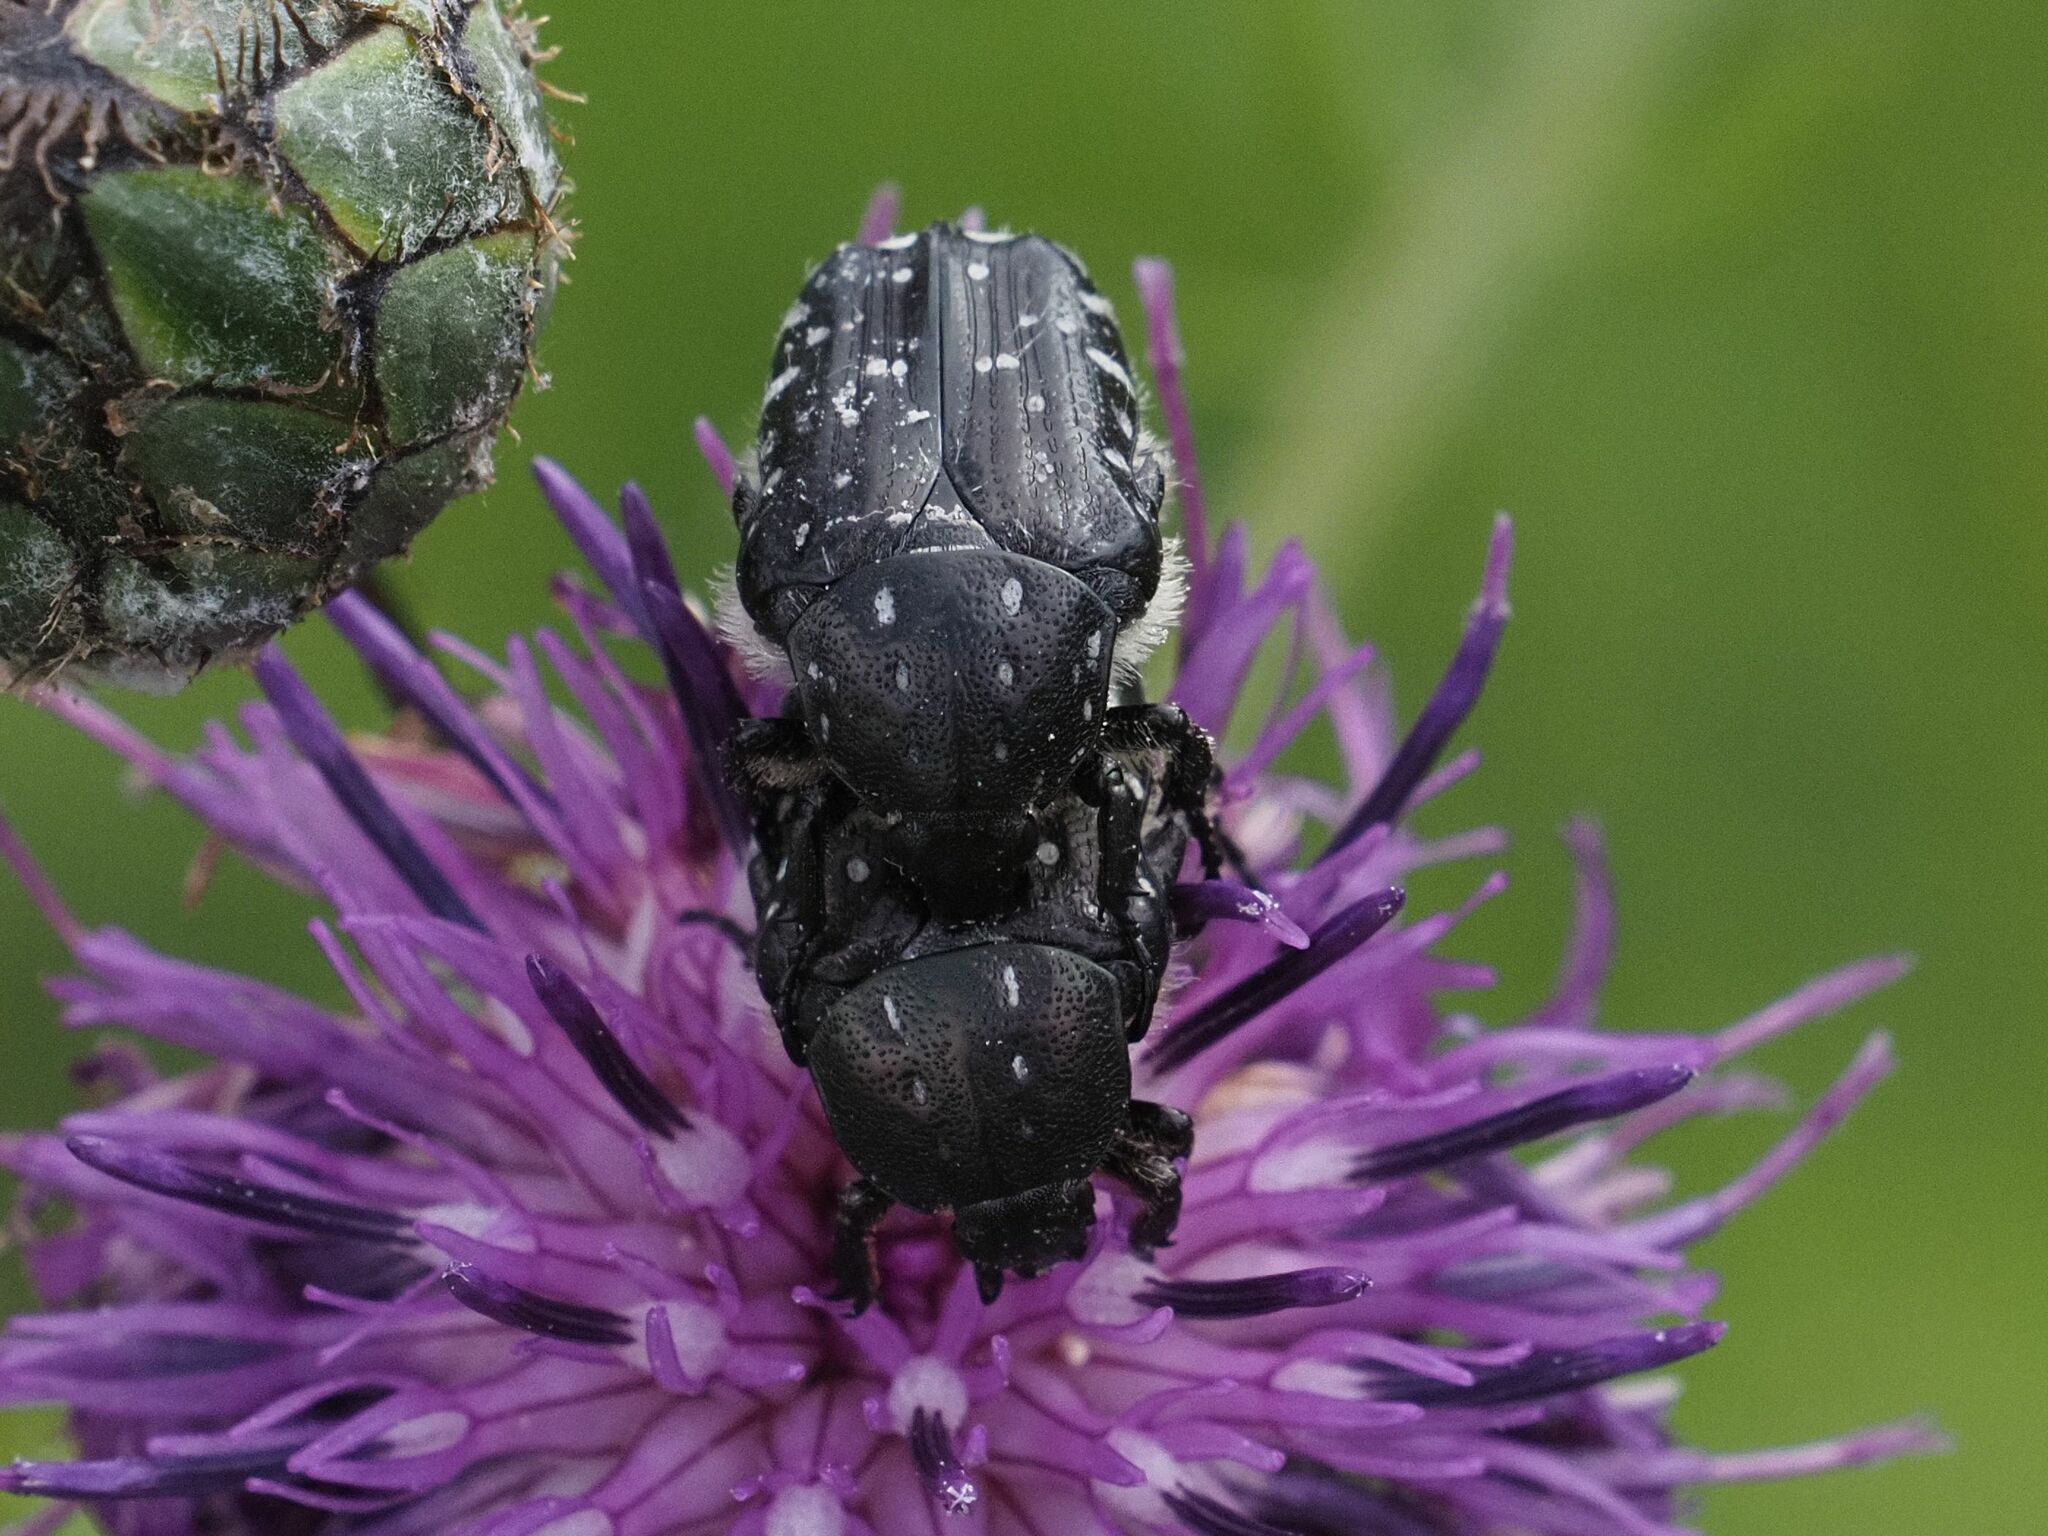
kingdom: Animalia
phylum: Arthropoda
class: Insecta
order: Coleoptera
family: Scarabaeidae
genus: Oxythyrea
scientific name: Oxythyrea funesta
